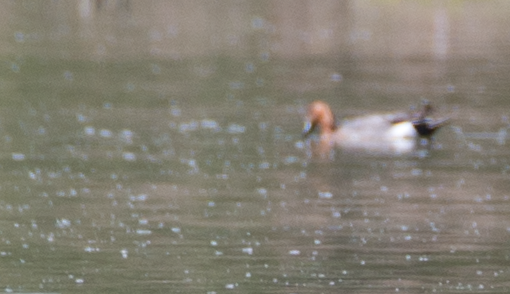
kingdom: Animalia
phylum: Chordata
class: Aves
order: Anseriformes
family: Anatidae
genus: Aythya
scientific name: Aythya ferina
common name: Common pochard
